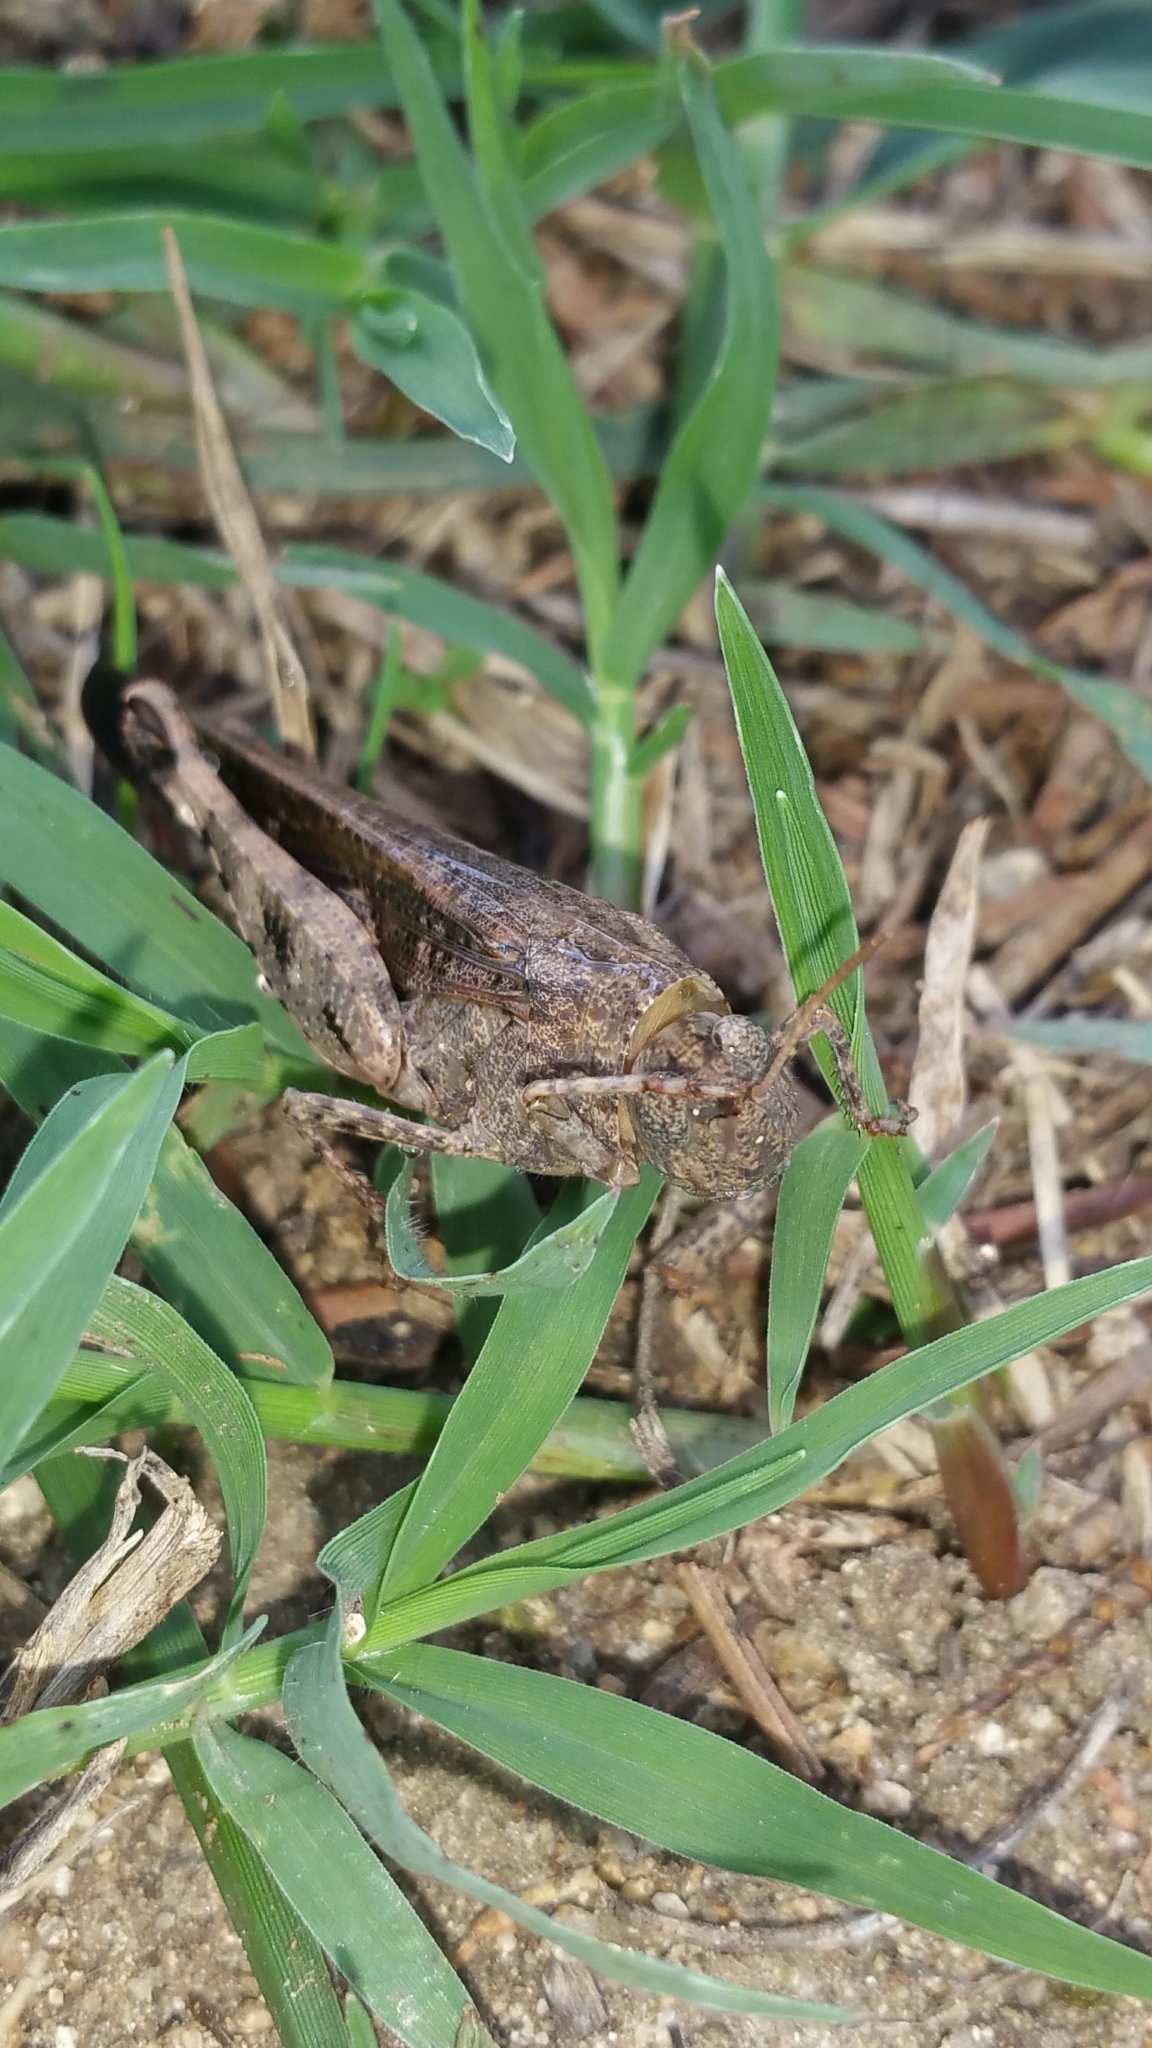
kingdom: Animalia
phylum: Arthropoda
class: Insecta
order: Orthoptera
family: Acrididae
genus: Aiolopus
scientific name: Aiolopus strepens
